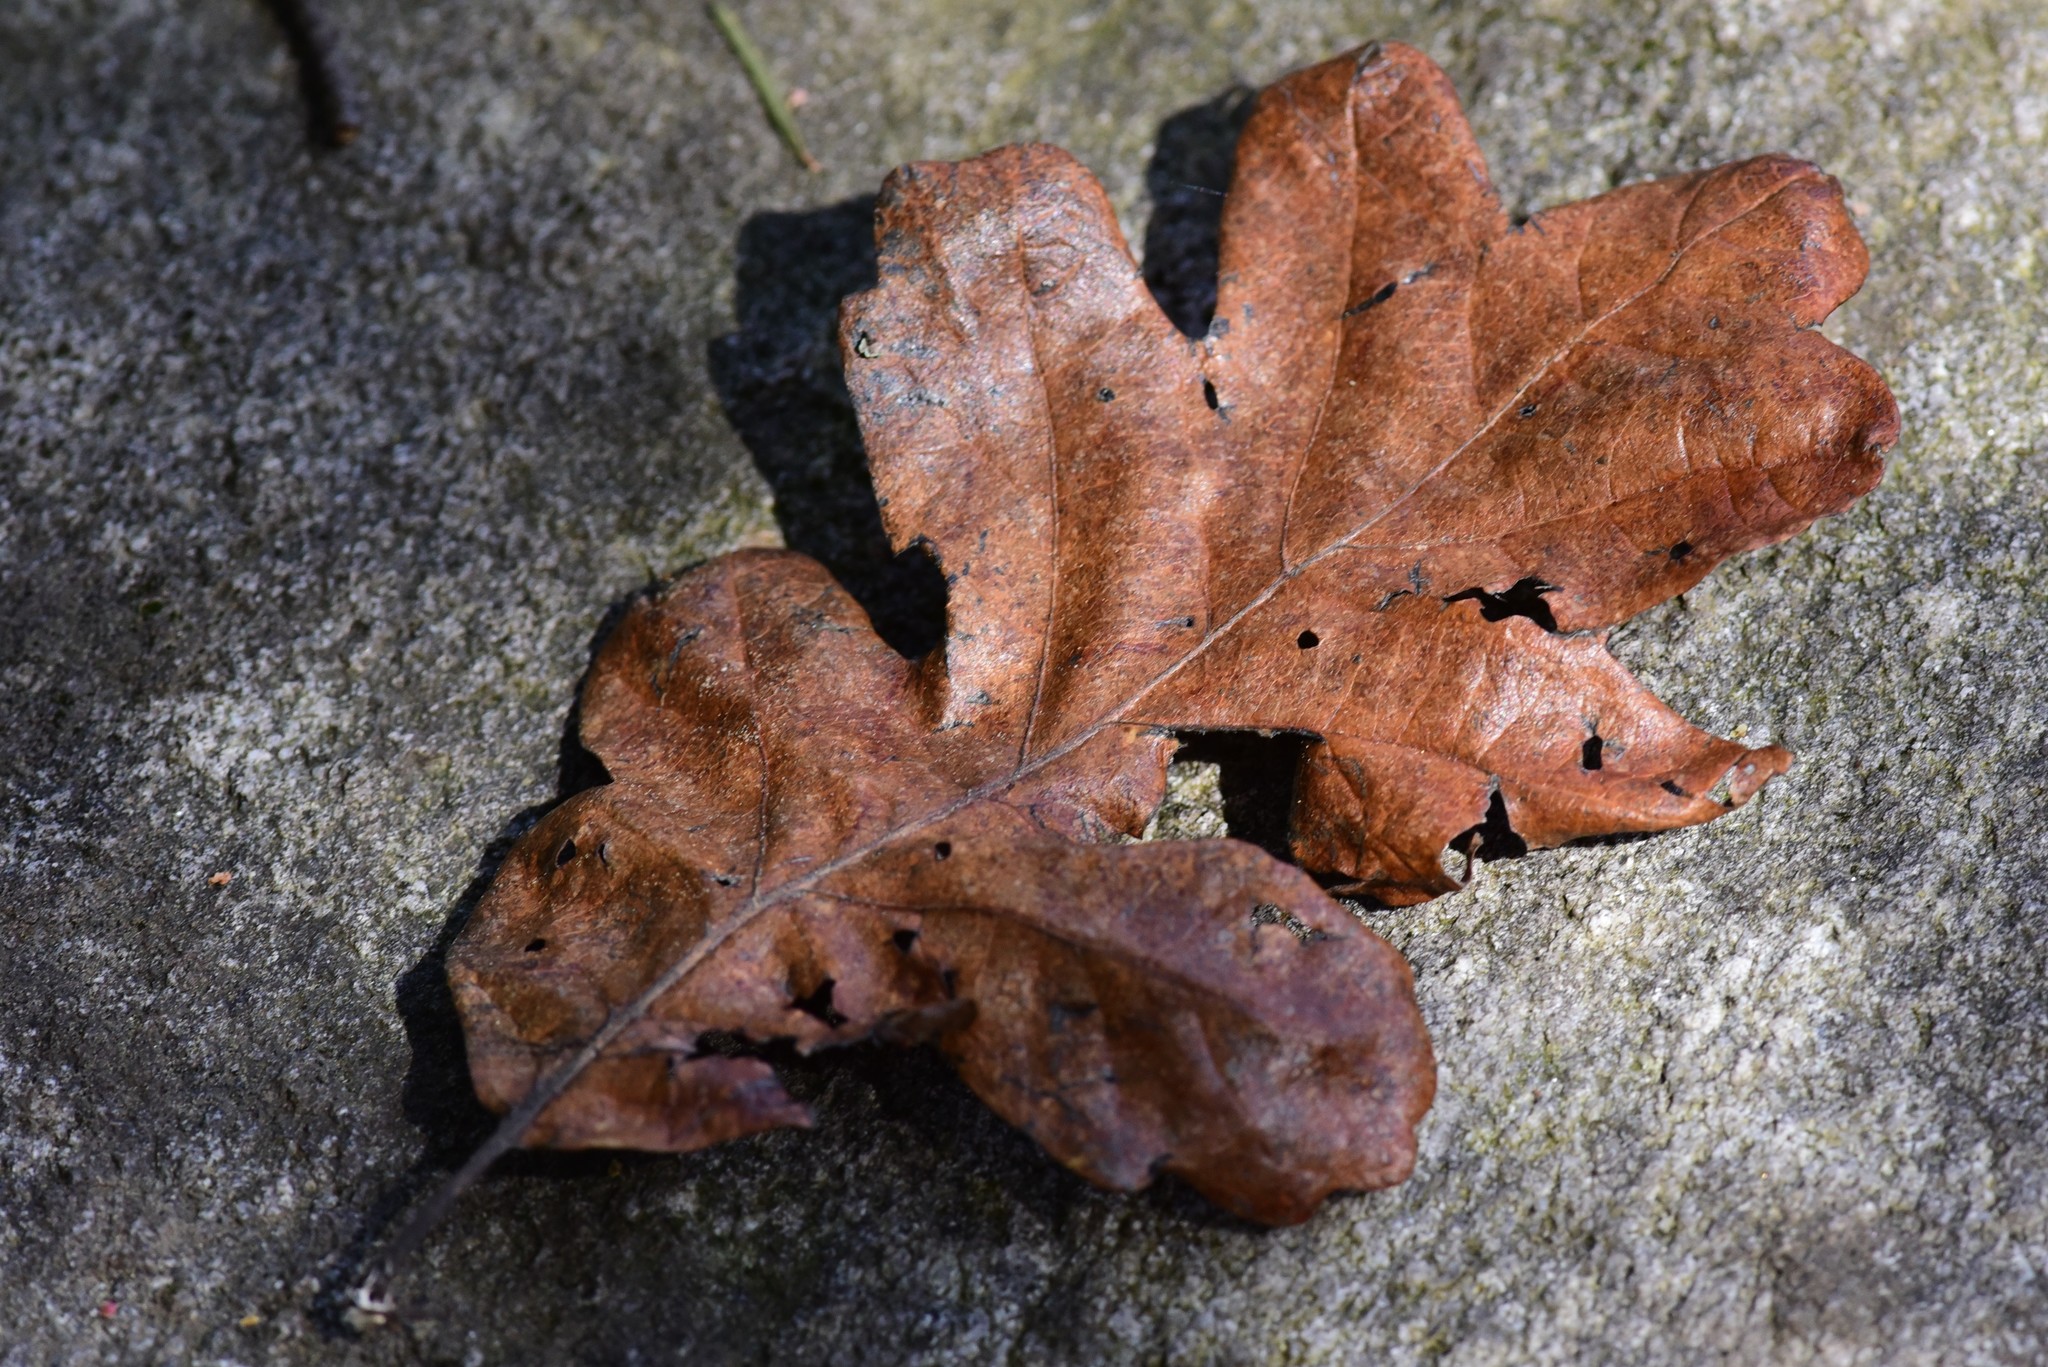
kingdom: Plantae
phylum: Tracheophyta
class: Magnoliopsida
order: Fagales
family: Fagaceae
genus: Quercus
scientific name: Quercus garryana
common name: Garry oak
